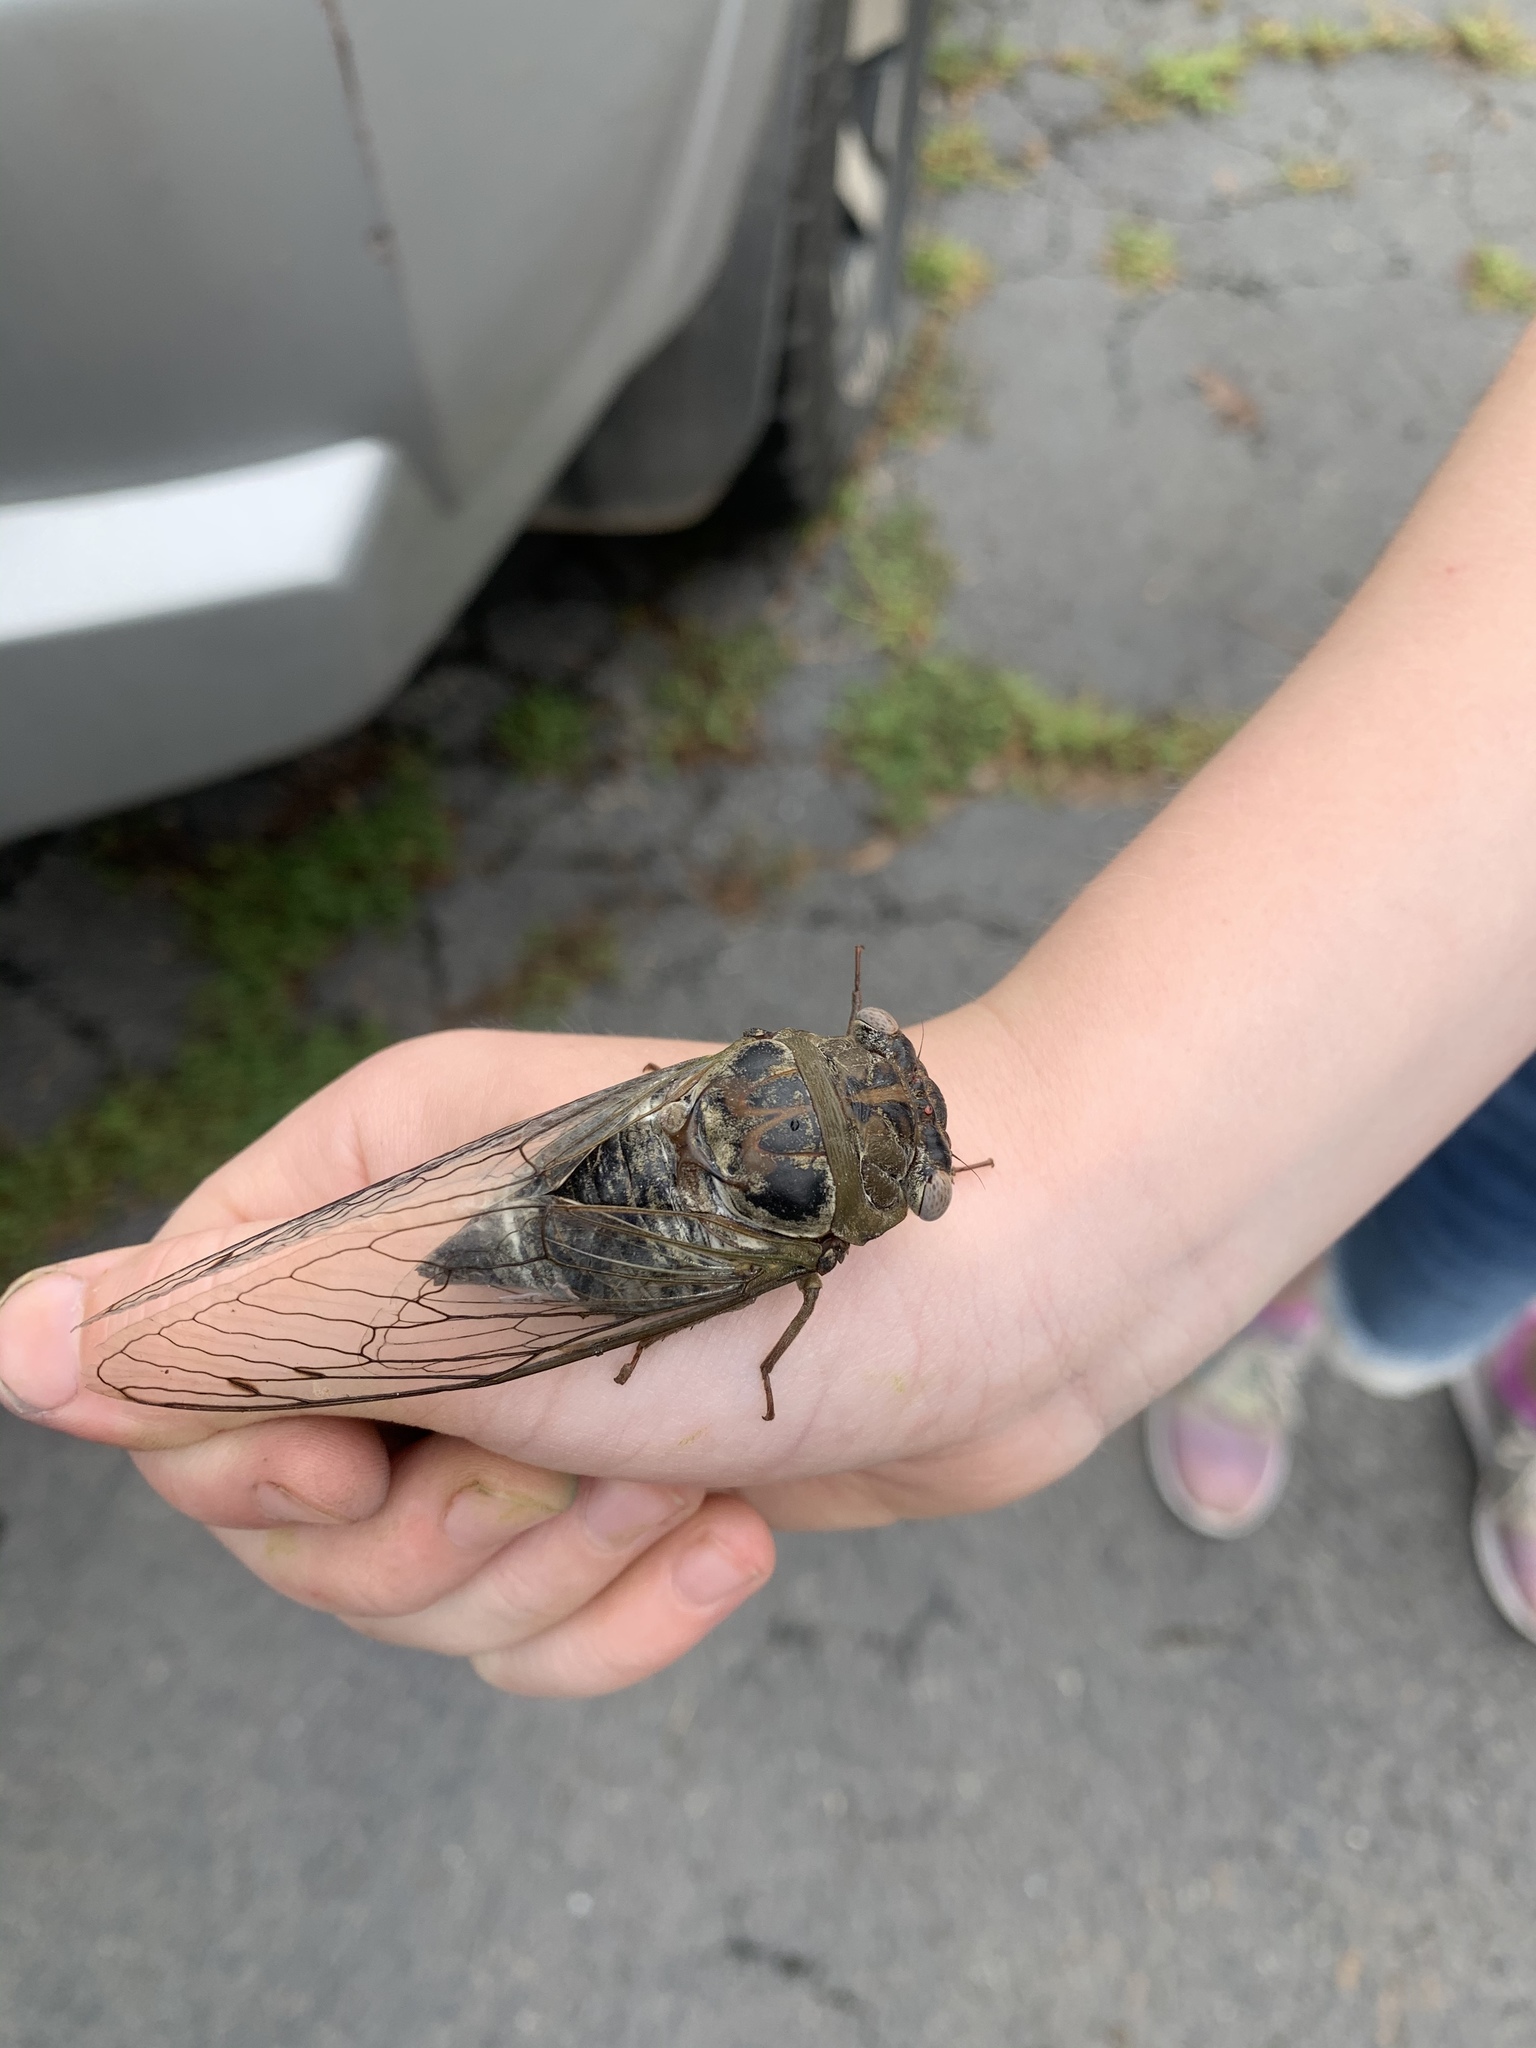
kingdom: Animalia
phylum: Arthropoda
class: Insecta
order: Hemiptera
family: Cicadidae
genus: Diceroprocta
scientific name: Diceroprocta grossa
